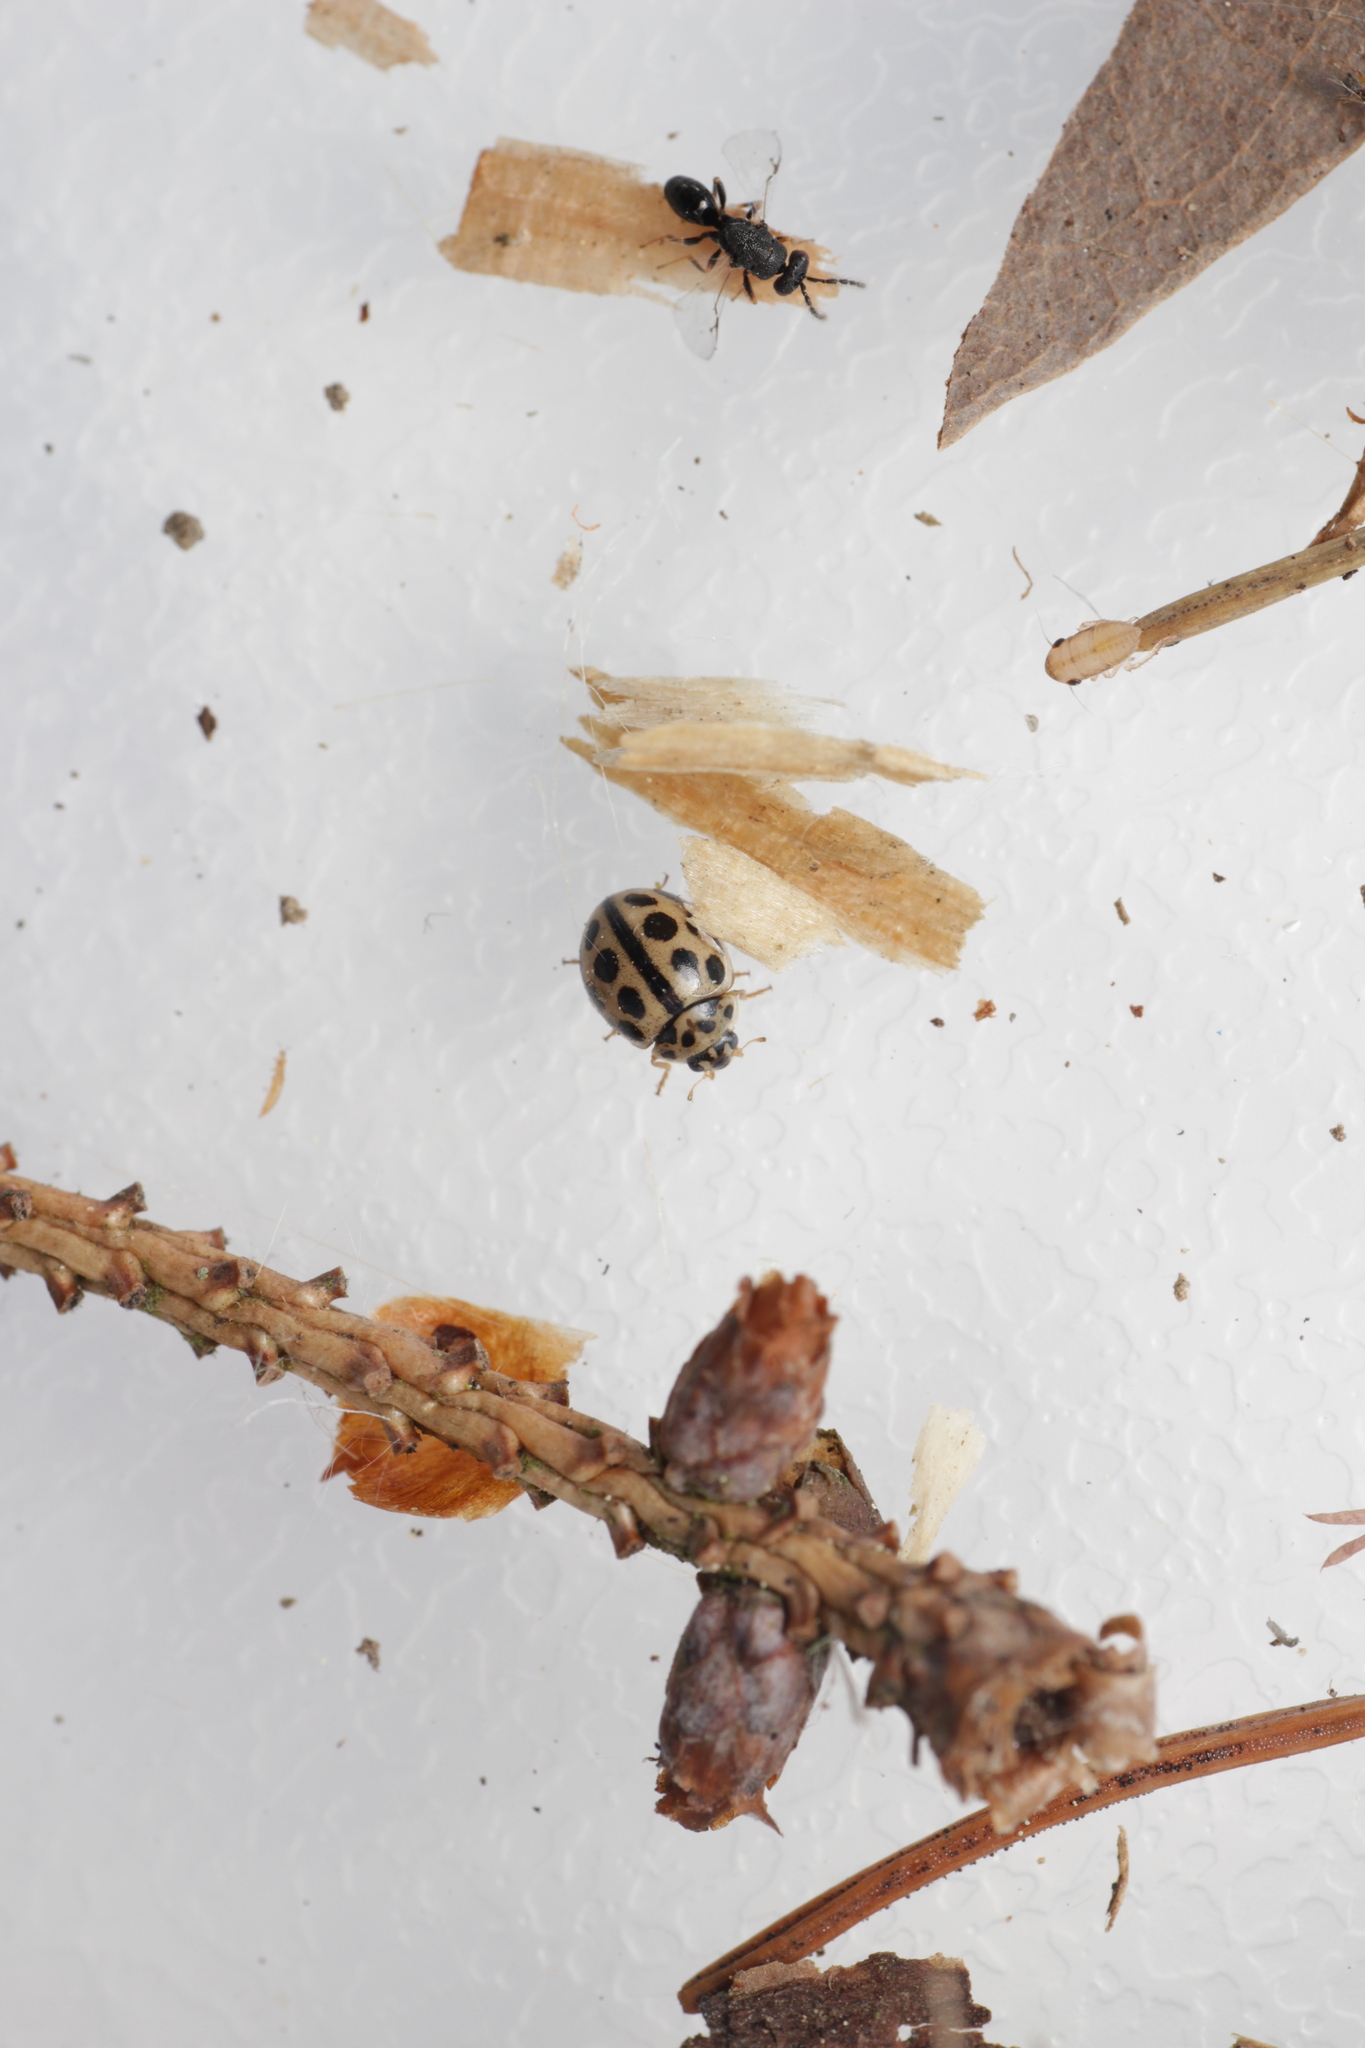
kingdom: Animalia
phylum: Arthropoda
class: Insecta
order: Coleoptera
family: Coccinellidae
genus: Tytthaspis
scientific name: Tytthaspis sedecimpunctata
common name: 16-spot ladybird
